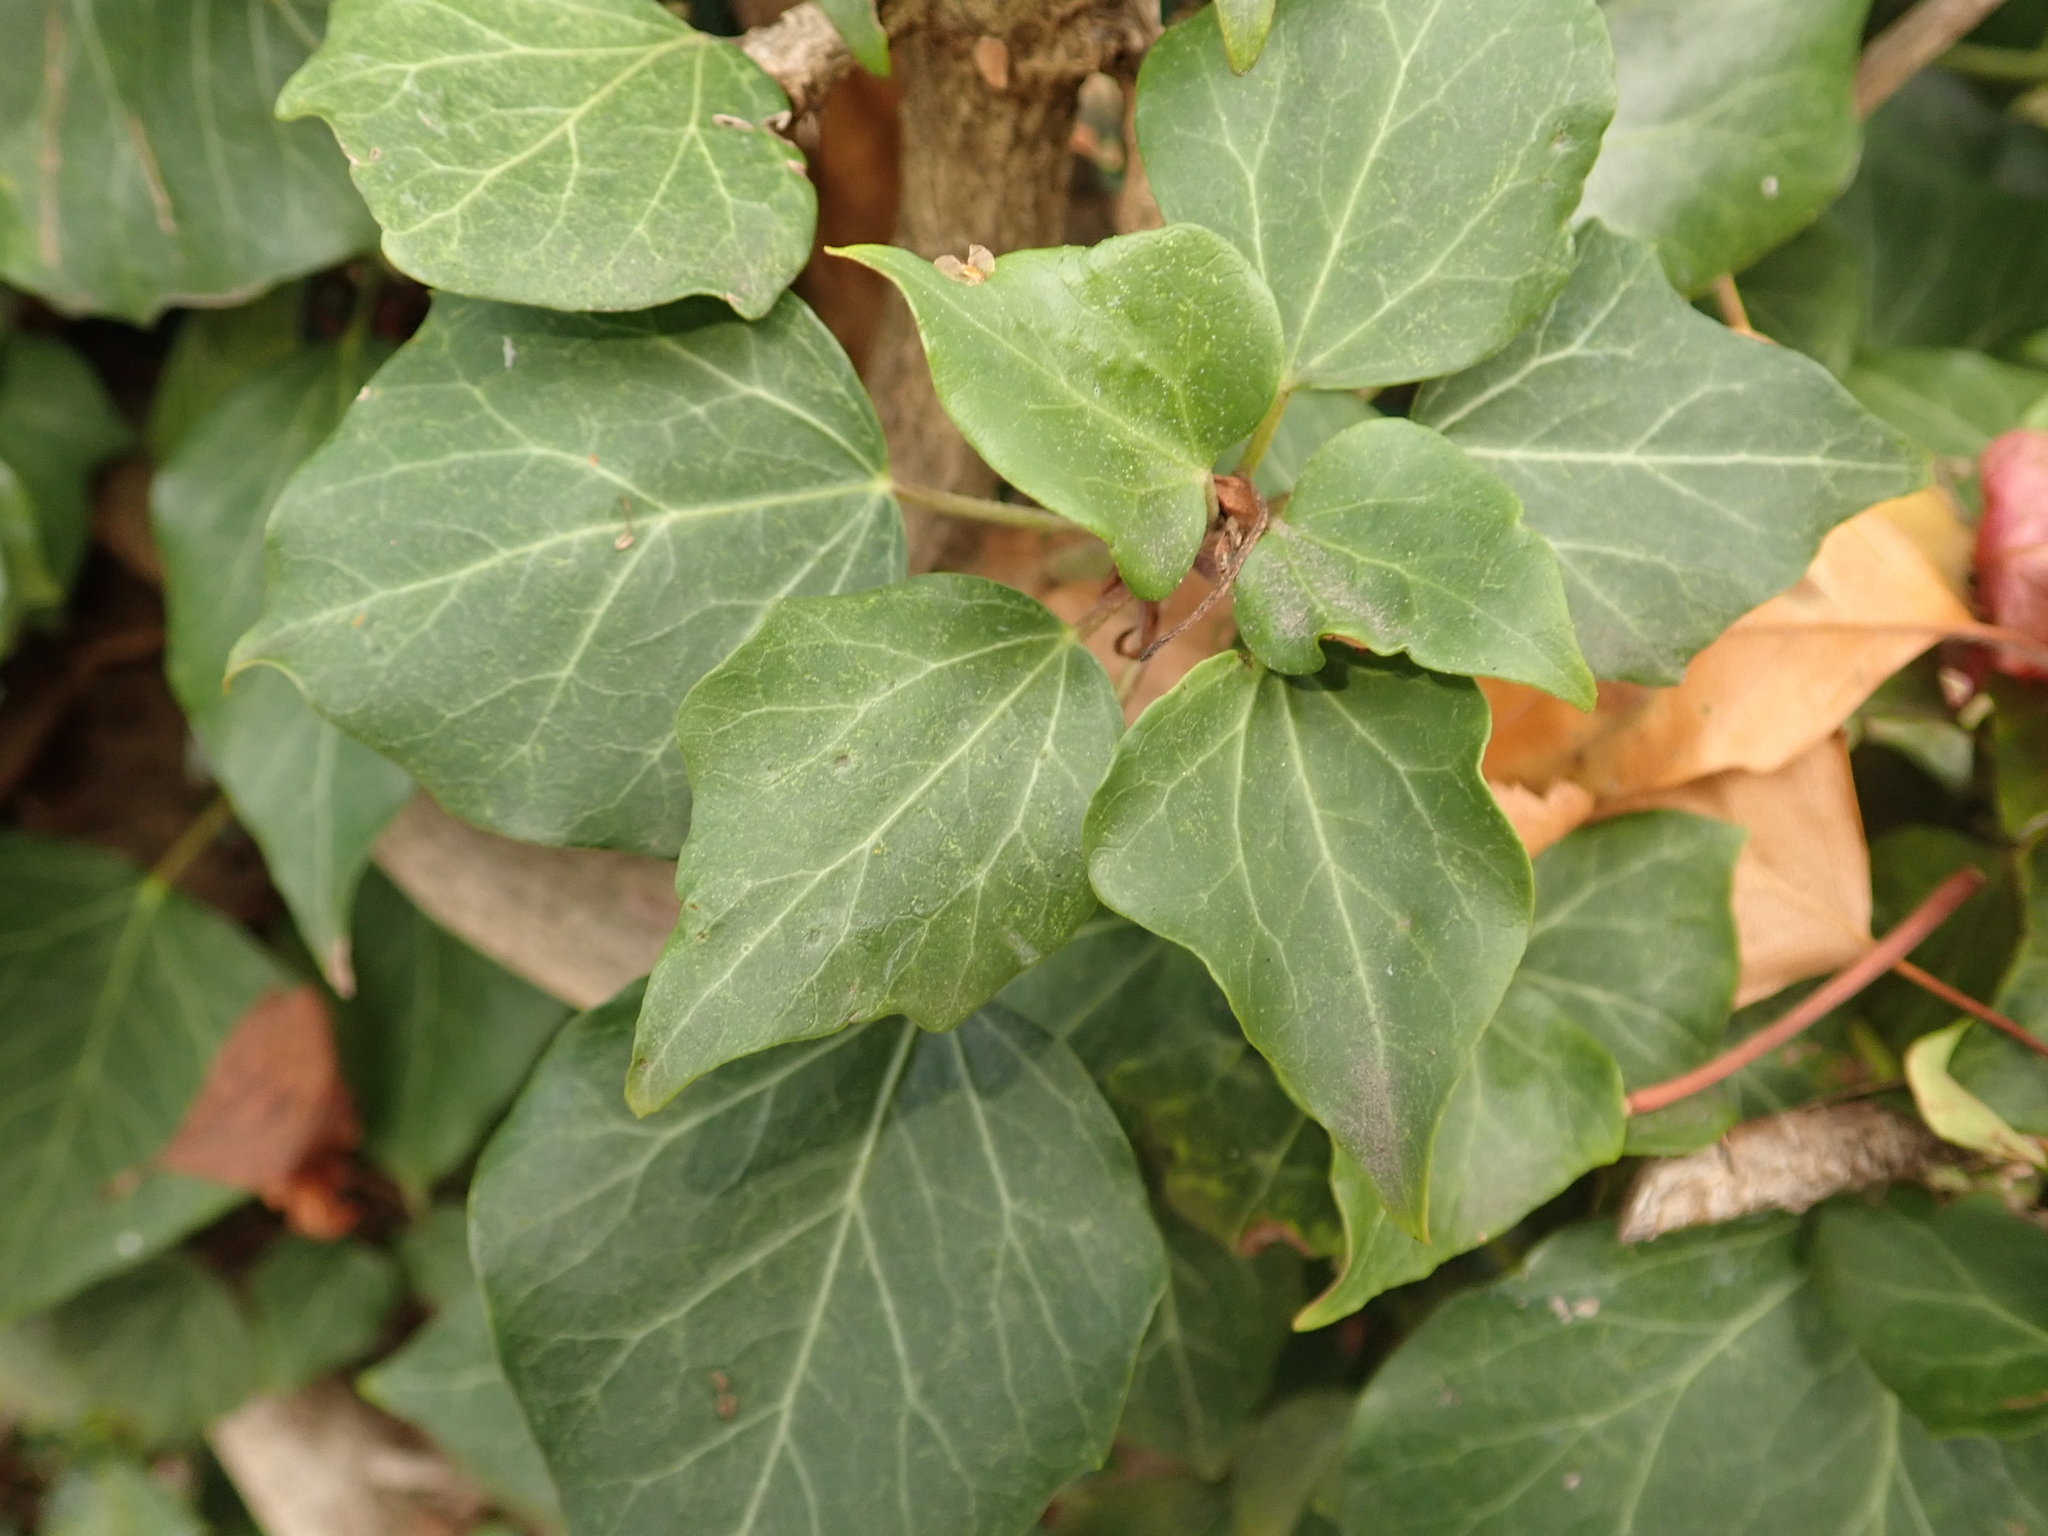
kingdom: Plantae
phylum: Tracheophyta
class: Magnoliopsida
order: Apiales
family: Araliaceae
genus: Hedera
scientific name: Hedera helix
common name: Ivy
